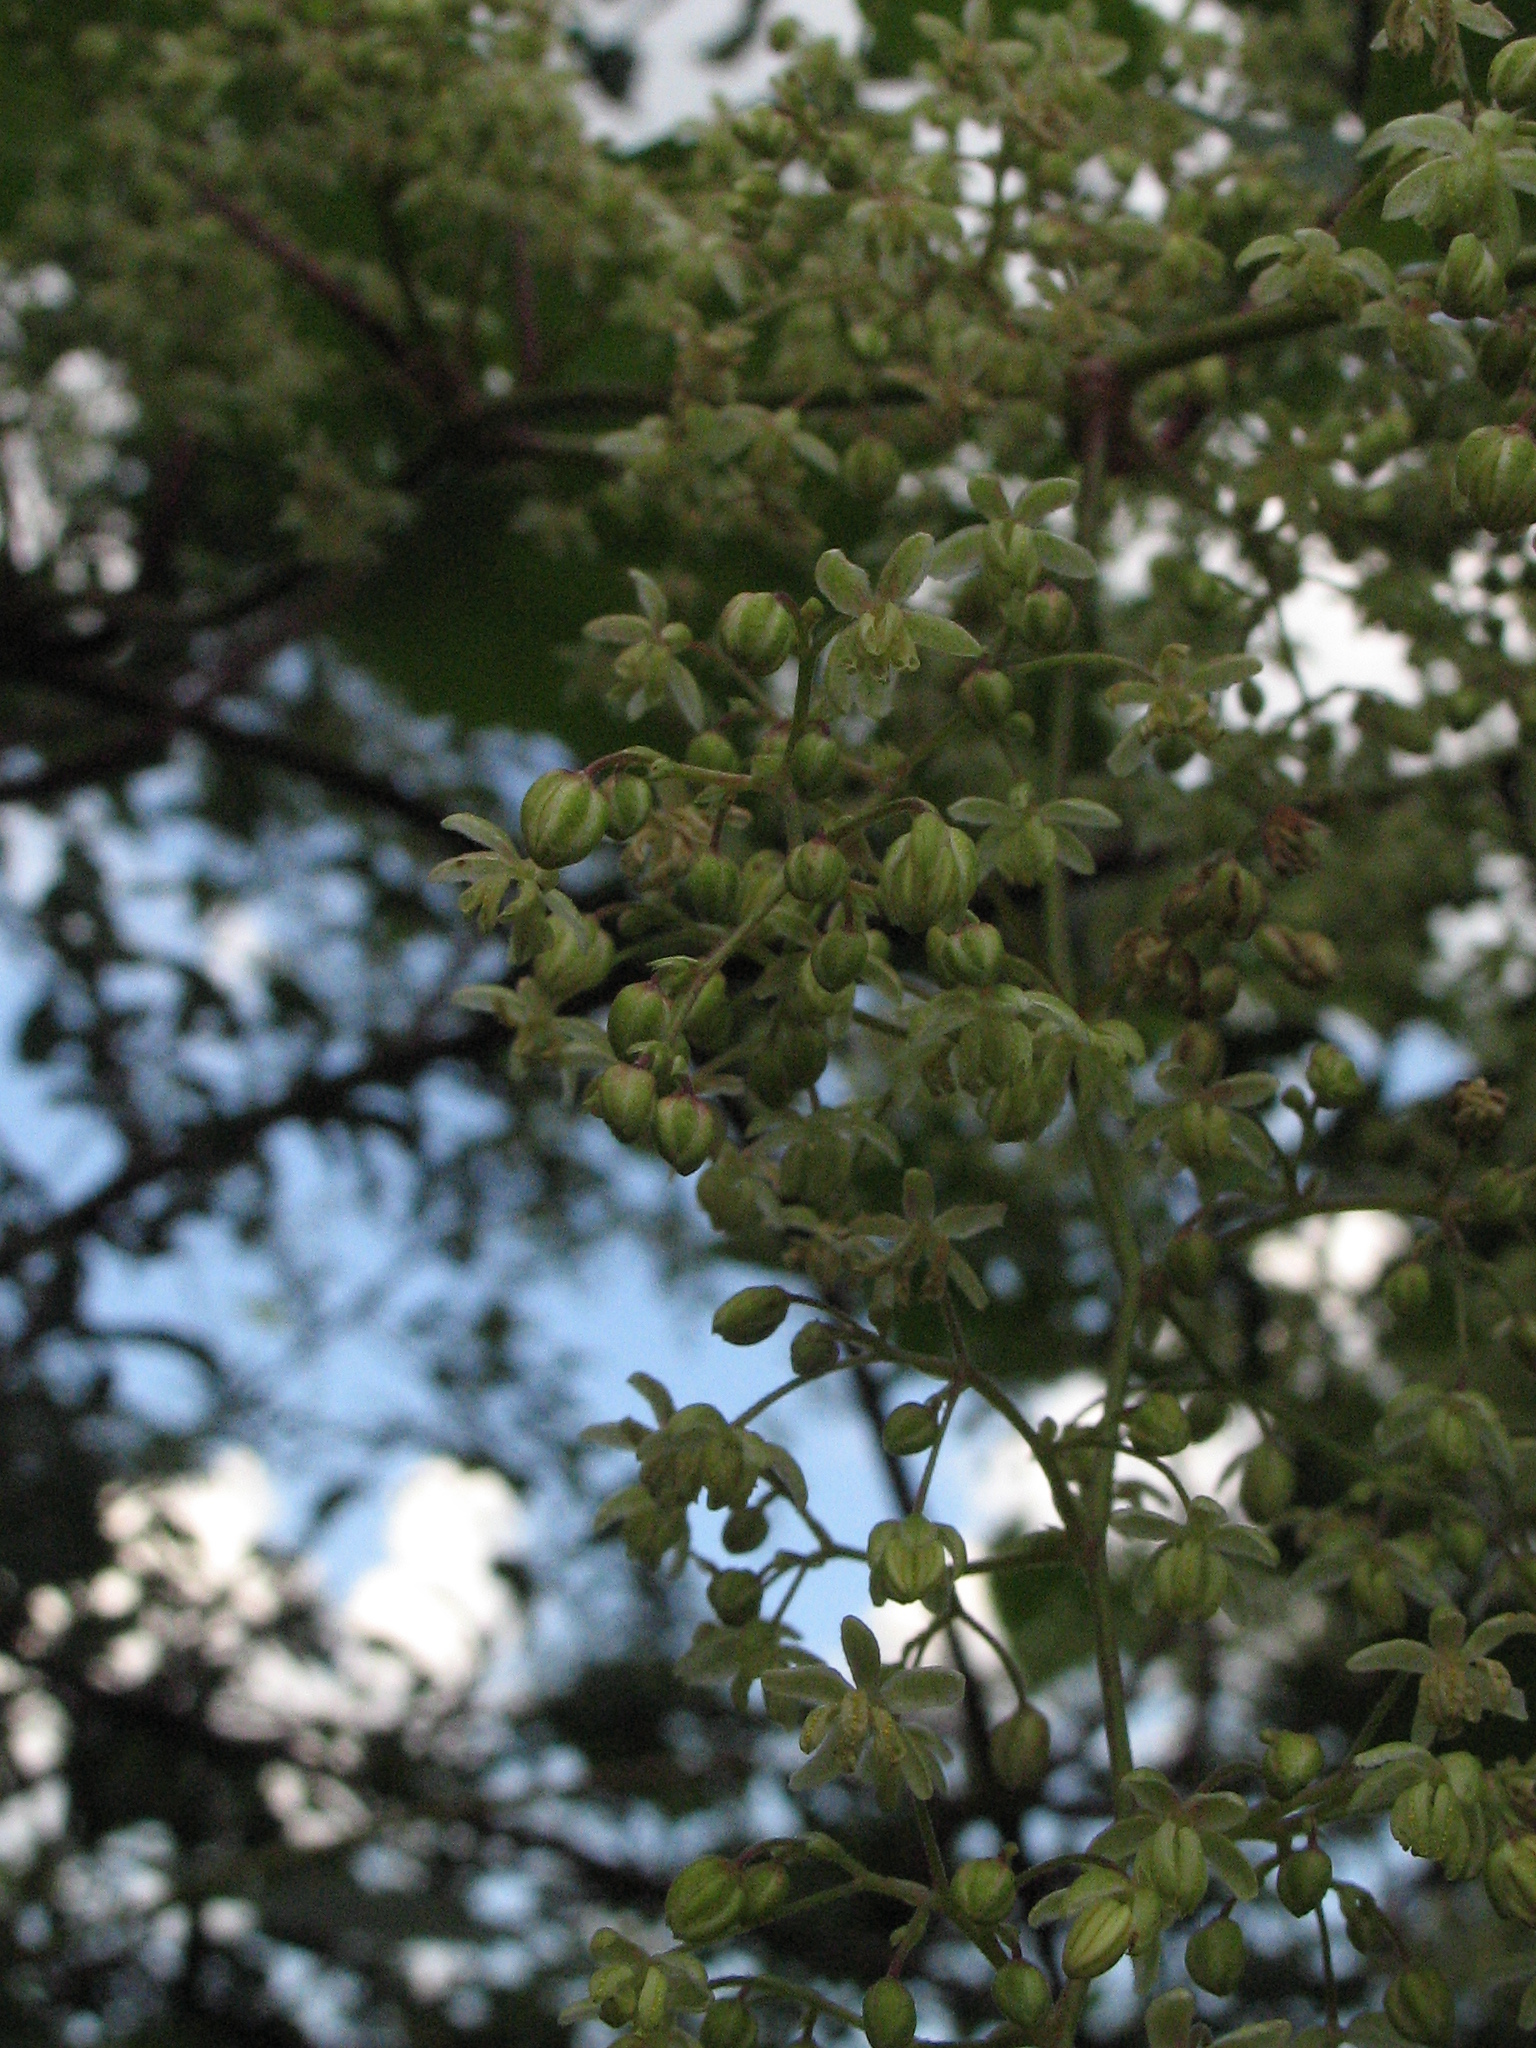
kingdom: Plantae
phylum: Tracheophyta
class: Magnoliopsida
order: Rosales
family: Cannabaceae
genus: Humulus
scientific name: Humulus lupulus
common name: Hop
